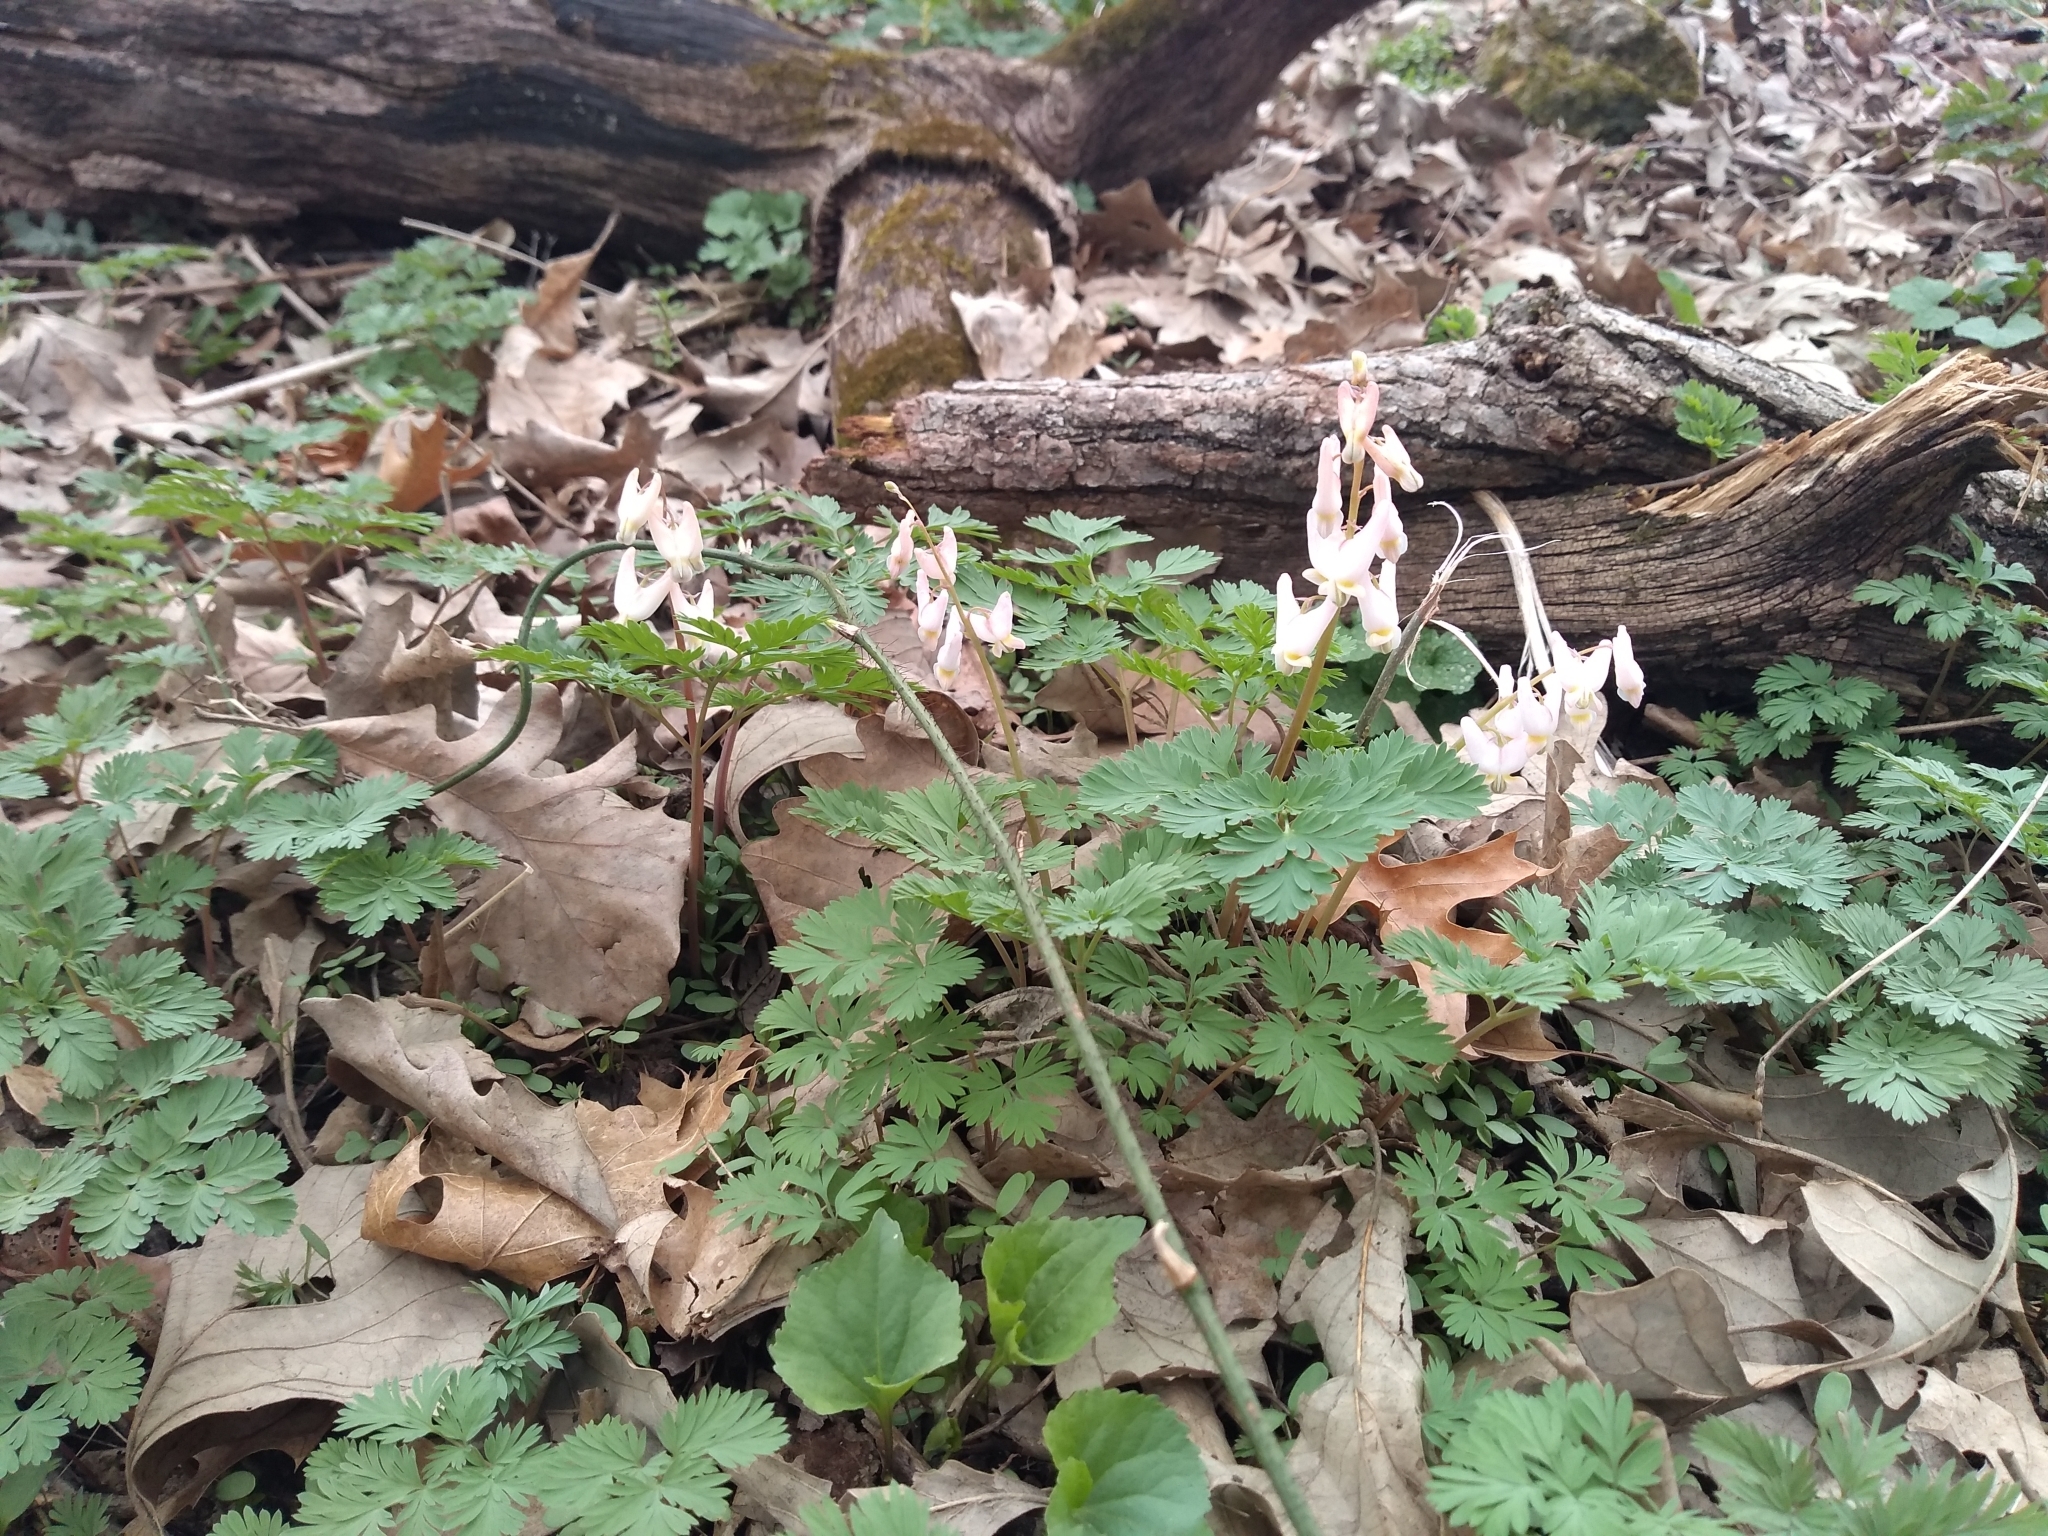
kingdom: Plantae
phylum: Tracheophyta
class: Magnoliopsida
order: Ranunculales
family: Papaveraceae
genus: Dicentra
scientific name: Dicentra cucullaria
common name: Dutchman's breeches
